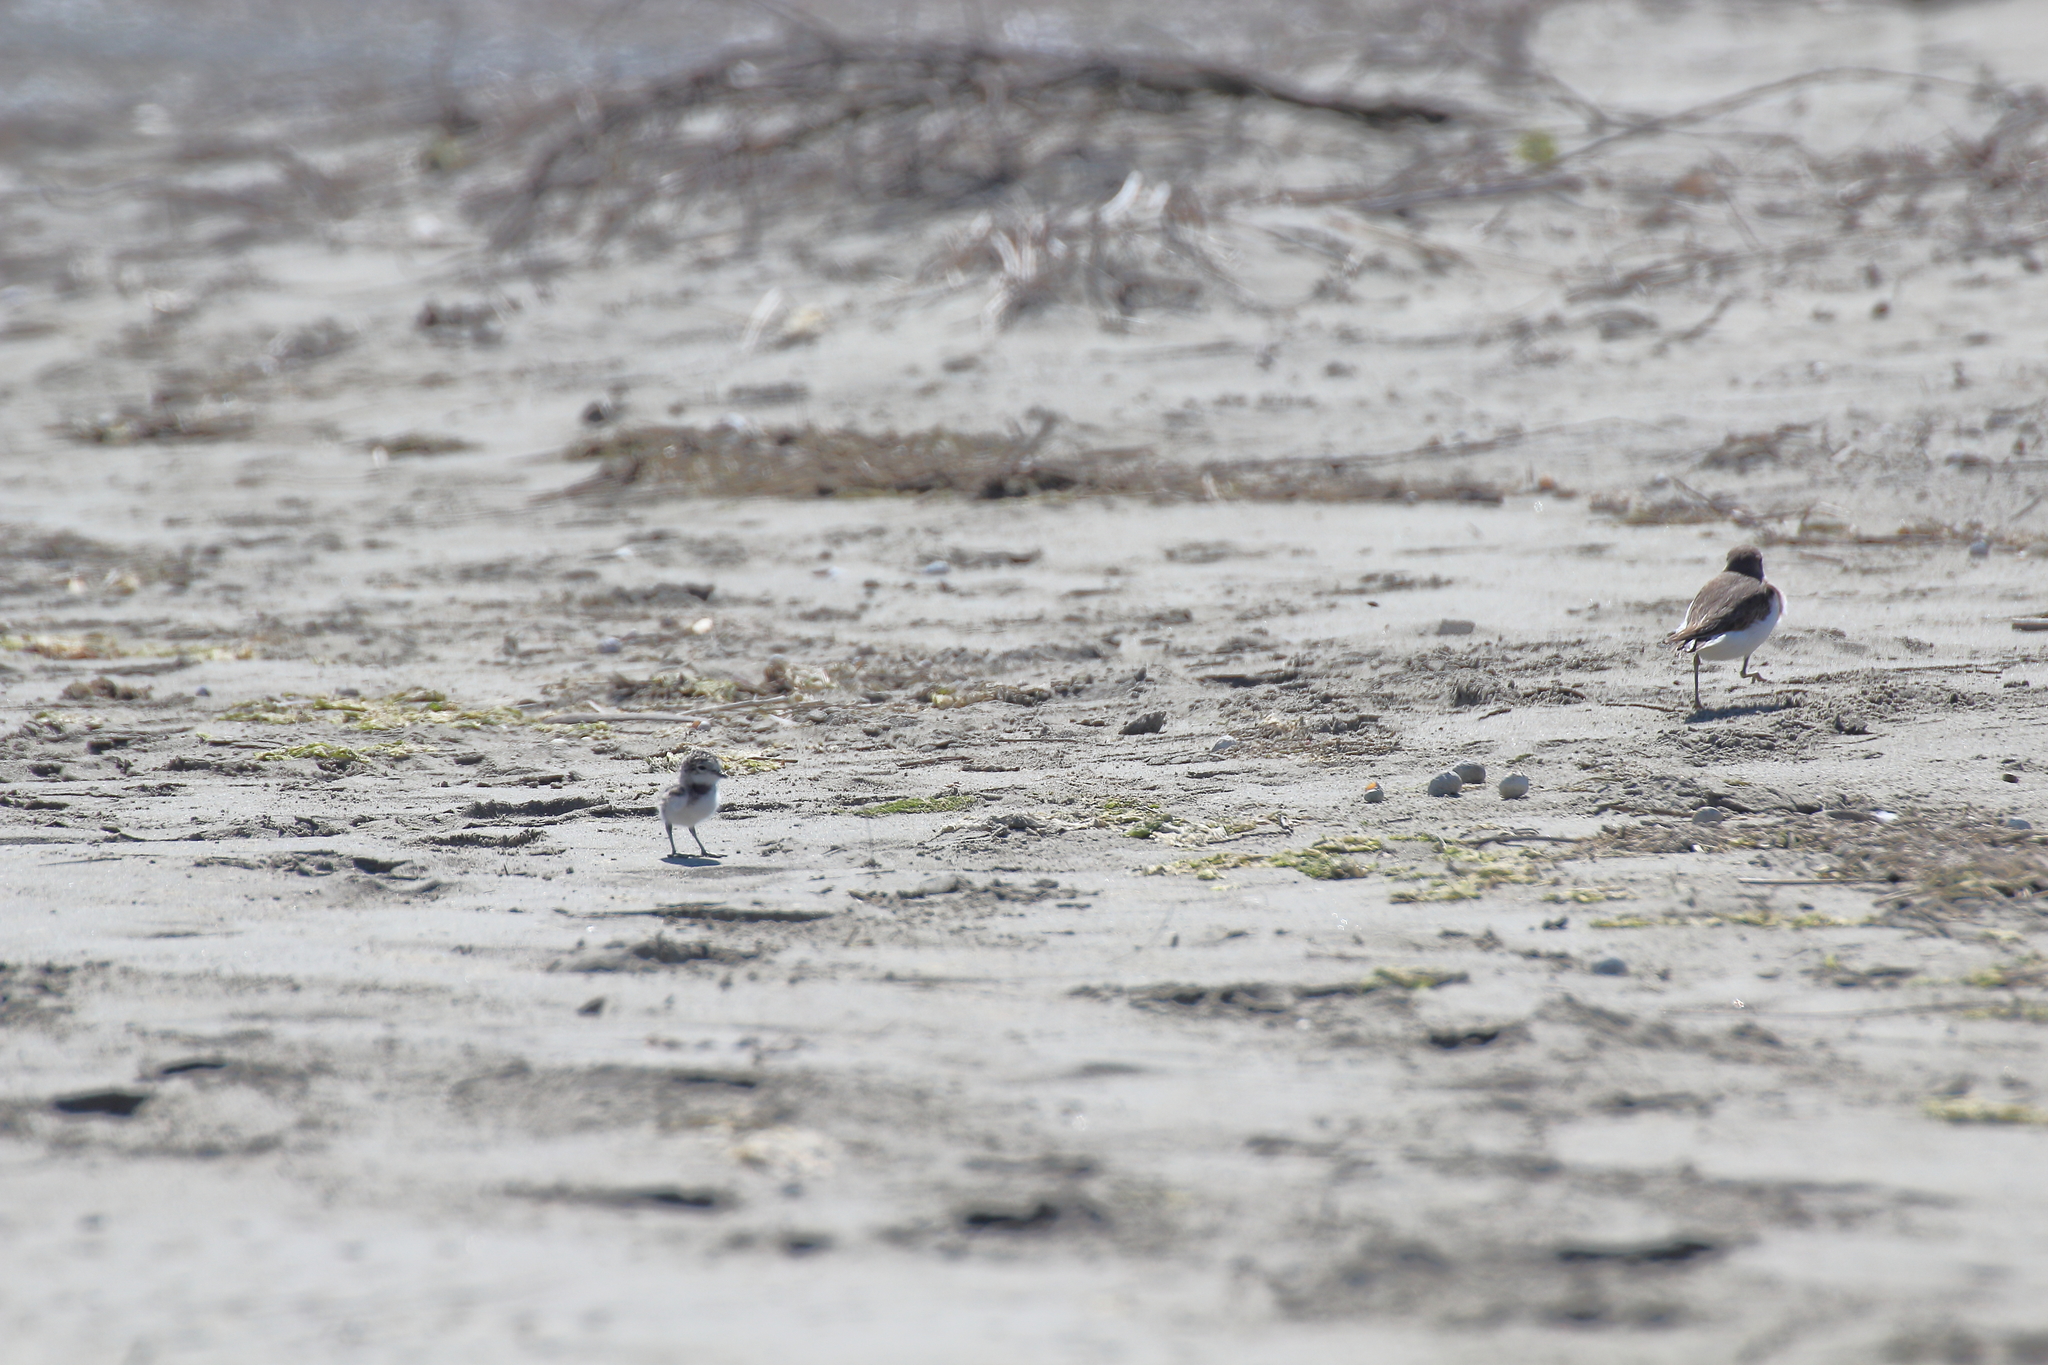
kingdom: Animalia
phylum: Chordata
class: Aves
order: Charadriiformes
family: Charadriidae
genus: Anarhynchus
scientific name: Anarhynchus
